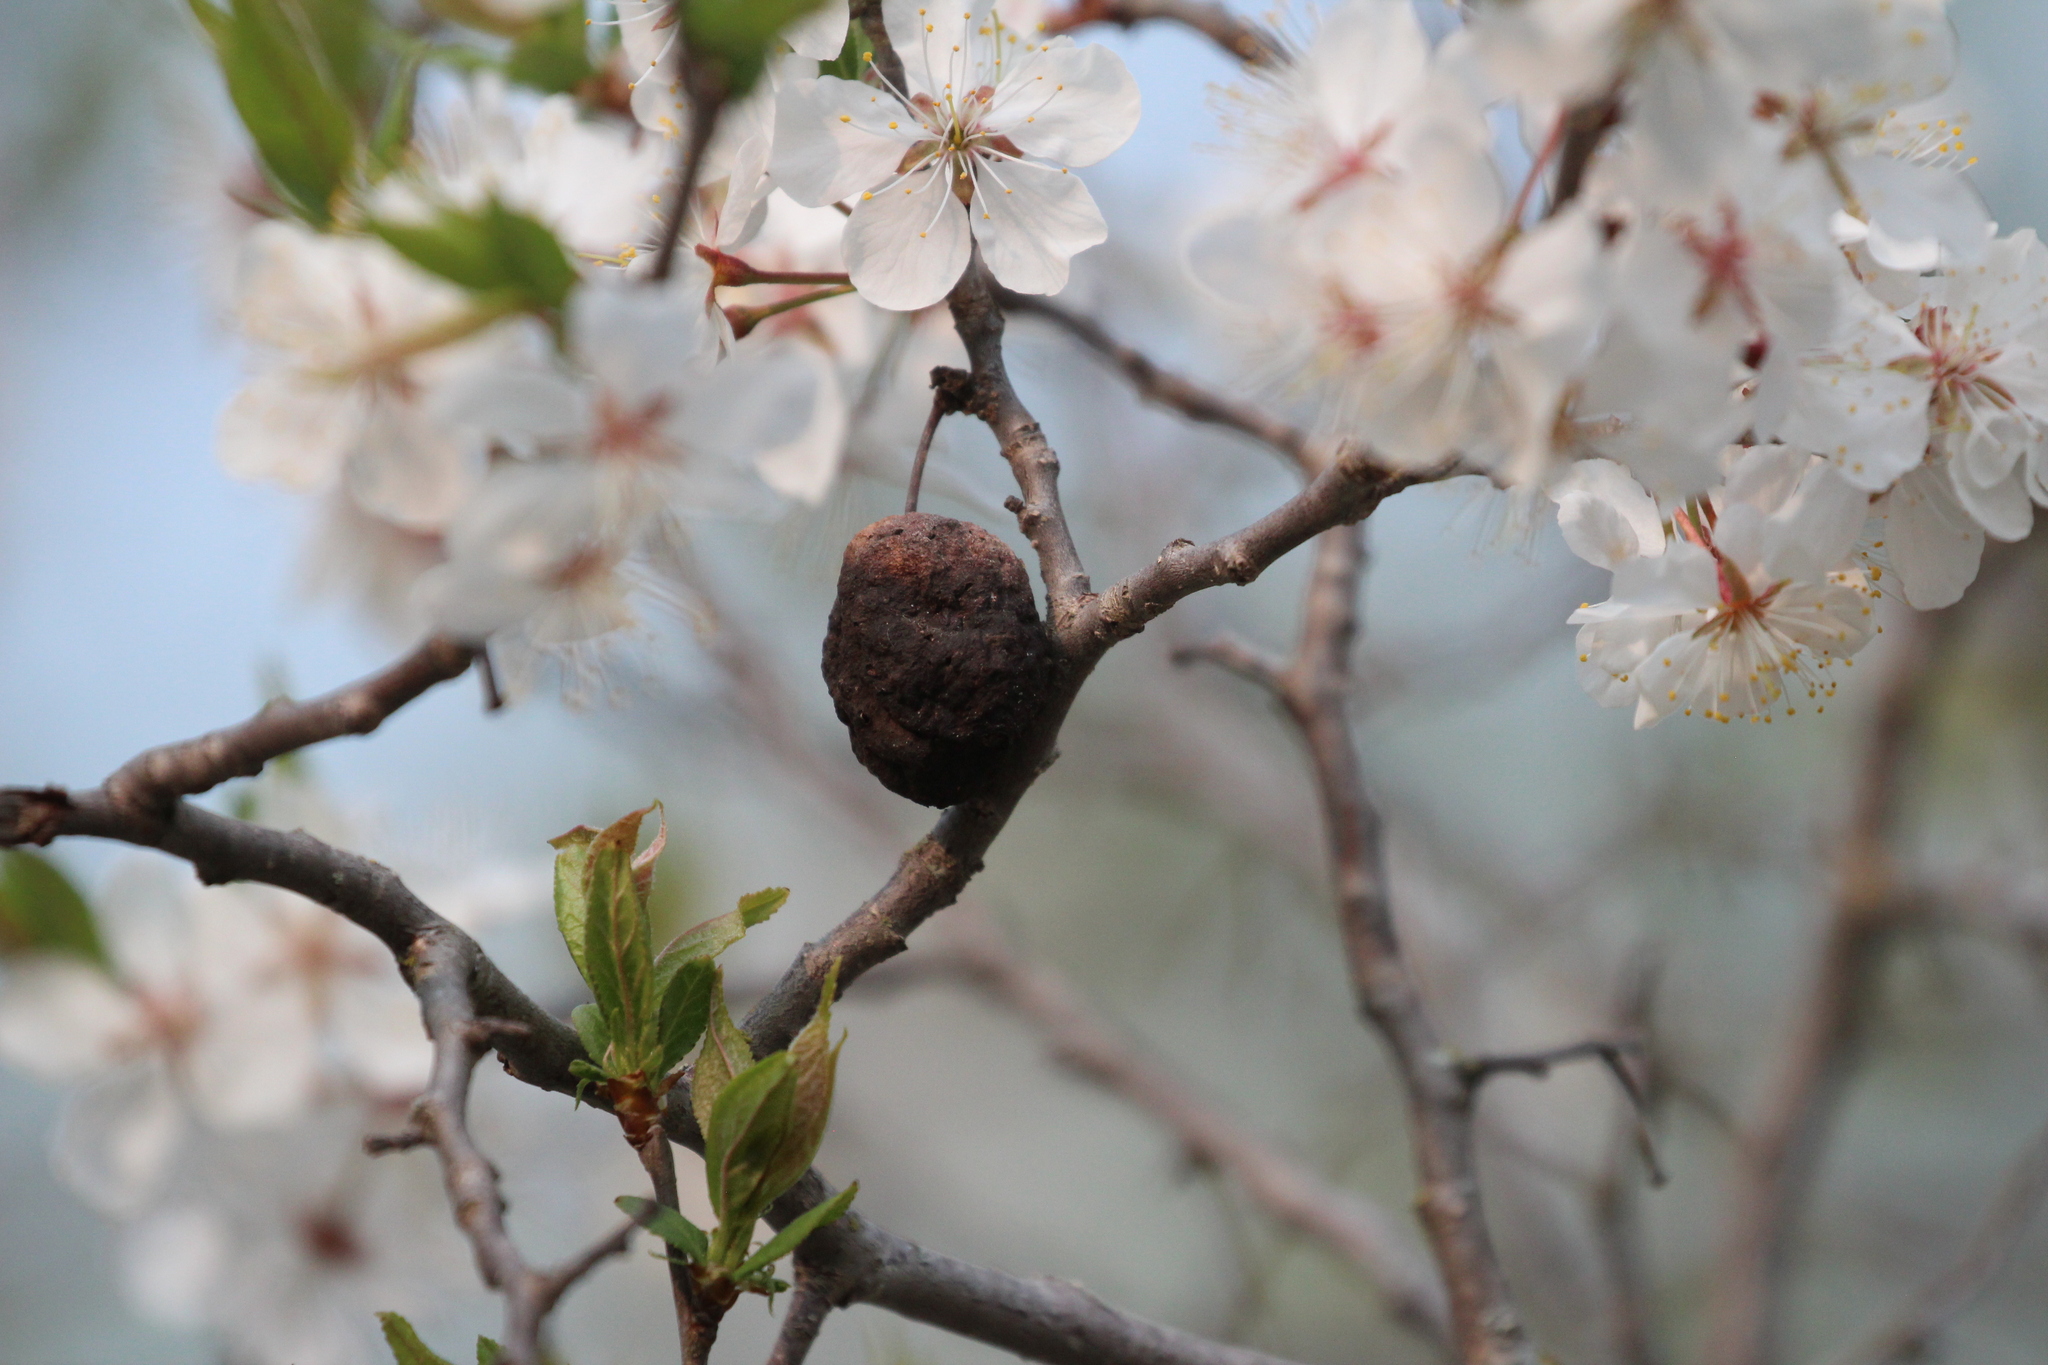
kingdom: Plantae
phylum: Tracheophyta
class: Magnoliopsida
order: Rosales
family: Rosaceae
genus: Prunus
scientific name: Prunus nigra
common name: Black plum
